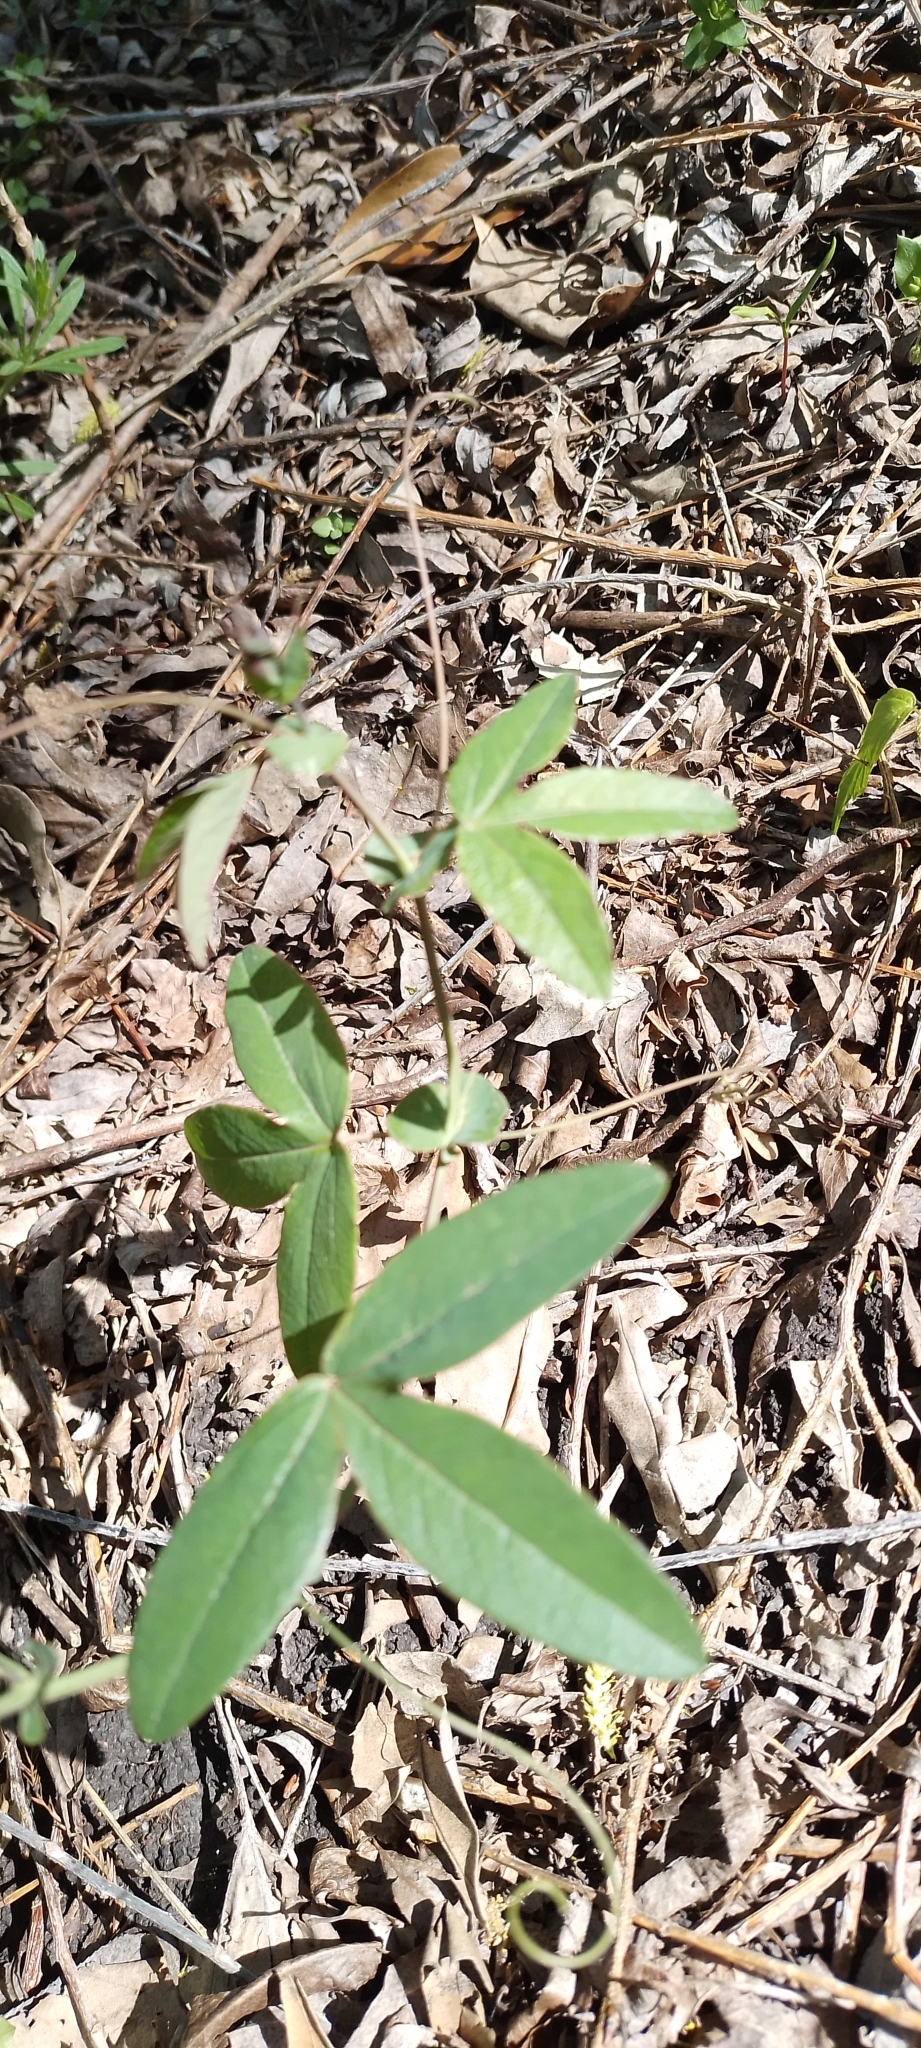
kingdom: Plantae
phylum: Tracheophyta
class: Magnoliopsida
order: Malpighiales
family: Passifloraceae
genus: Passiflora
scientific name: Passiflora caerulea
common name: Blue passionflower
